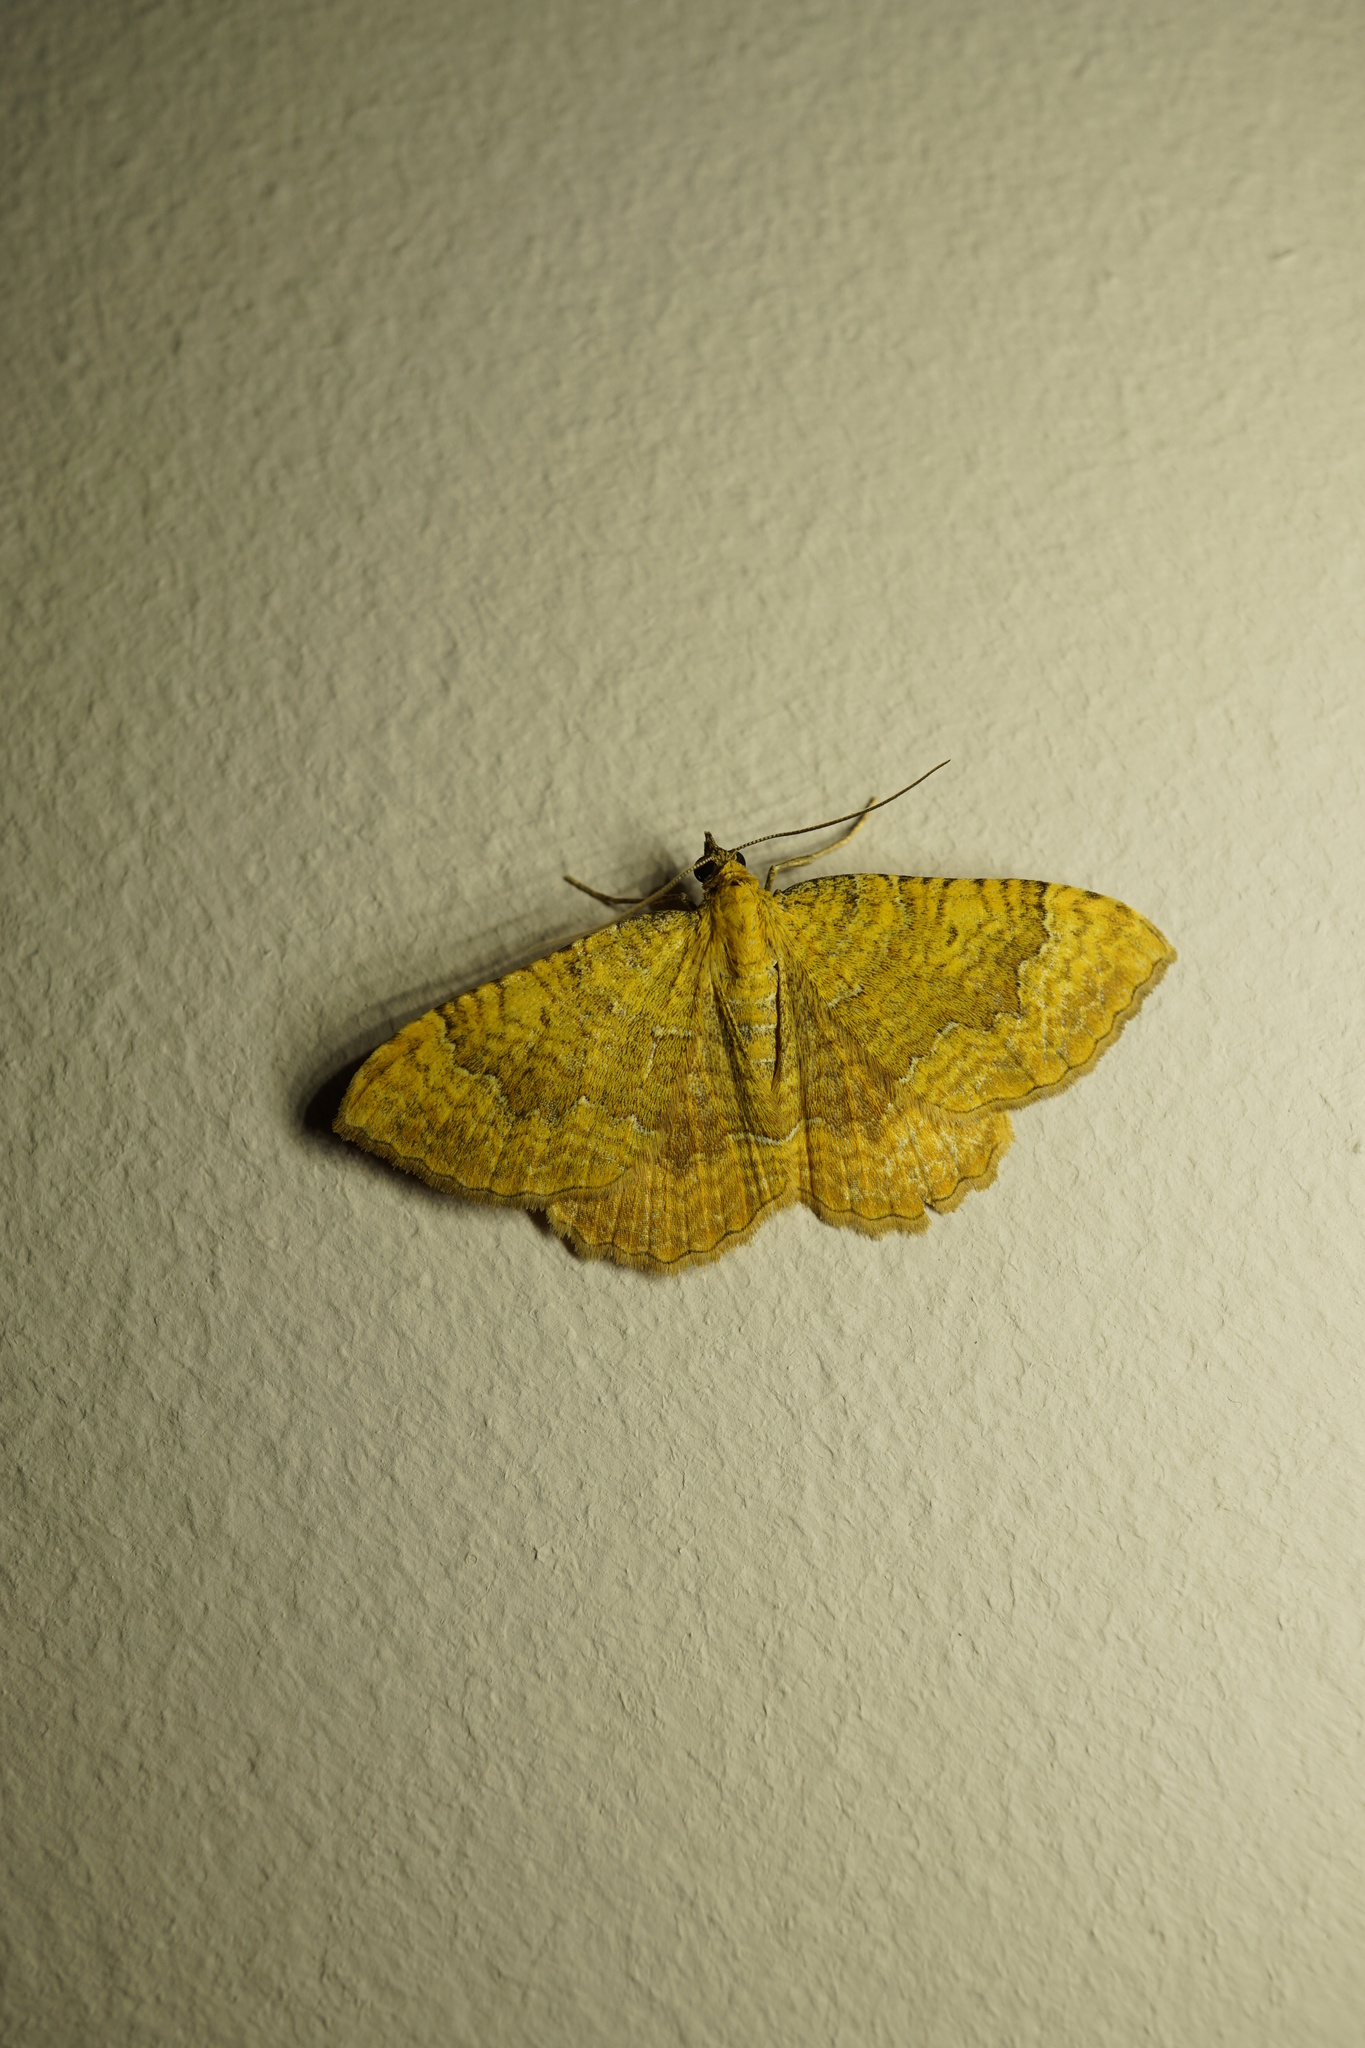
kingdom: Animalia
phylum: Arthropoda
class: Insecta
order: Lepidoptera
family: Geometridae
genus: Camptogramma
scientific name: Camptogramma bilineata
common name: Yellow shell
